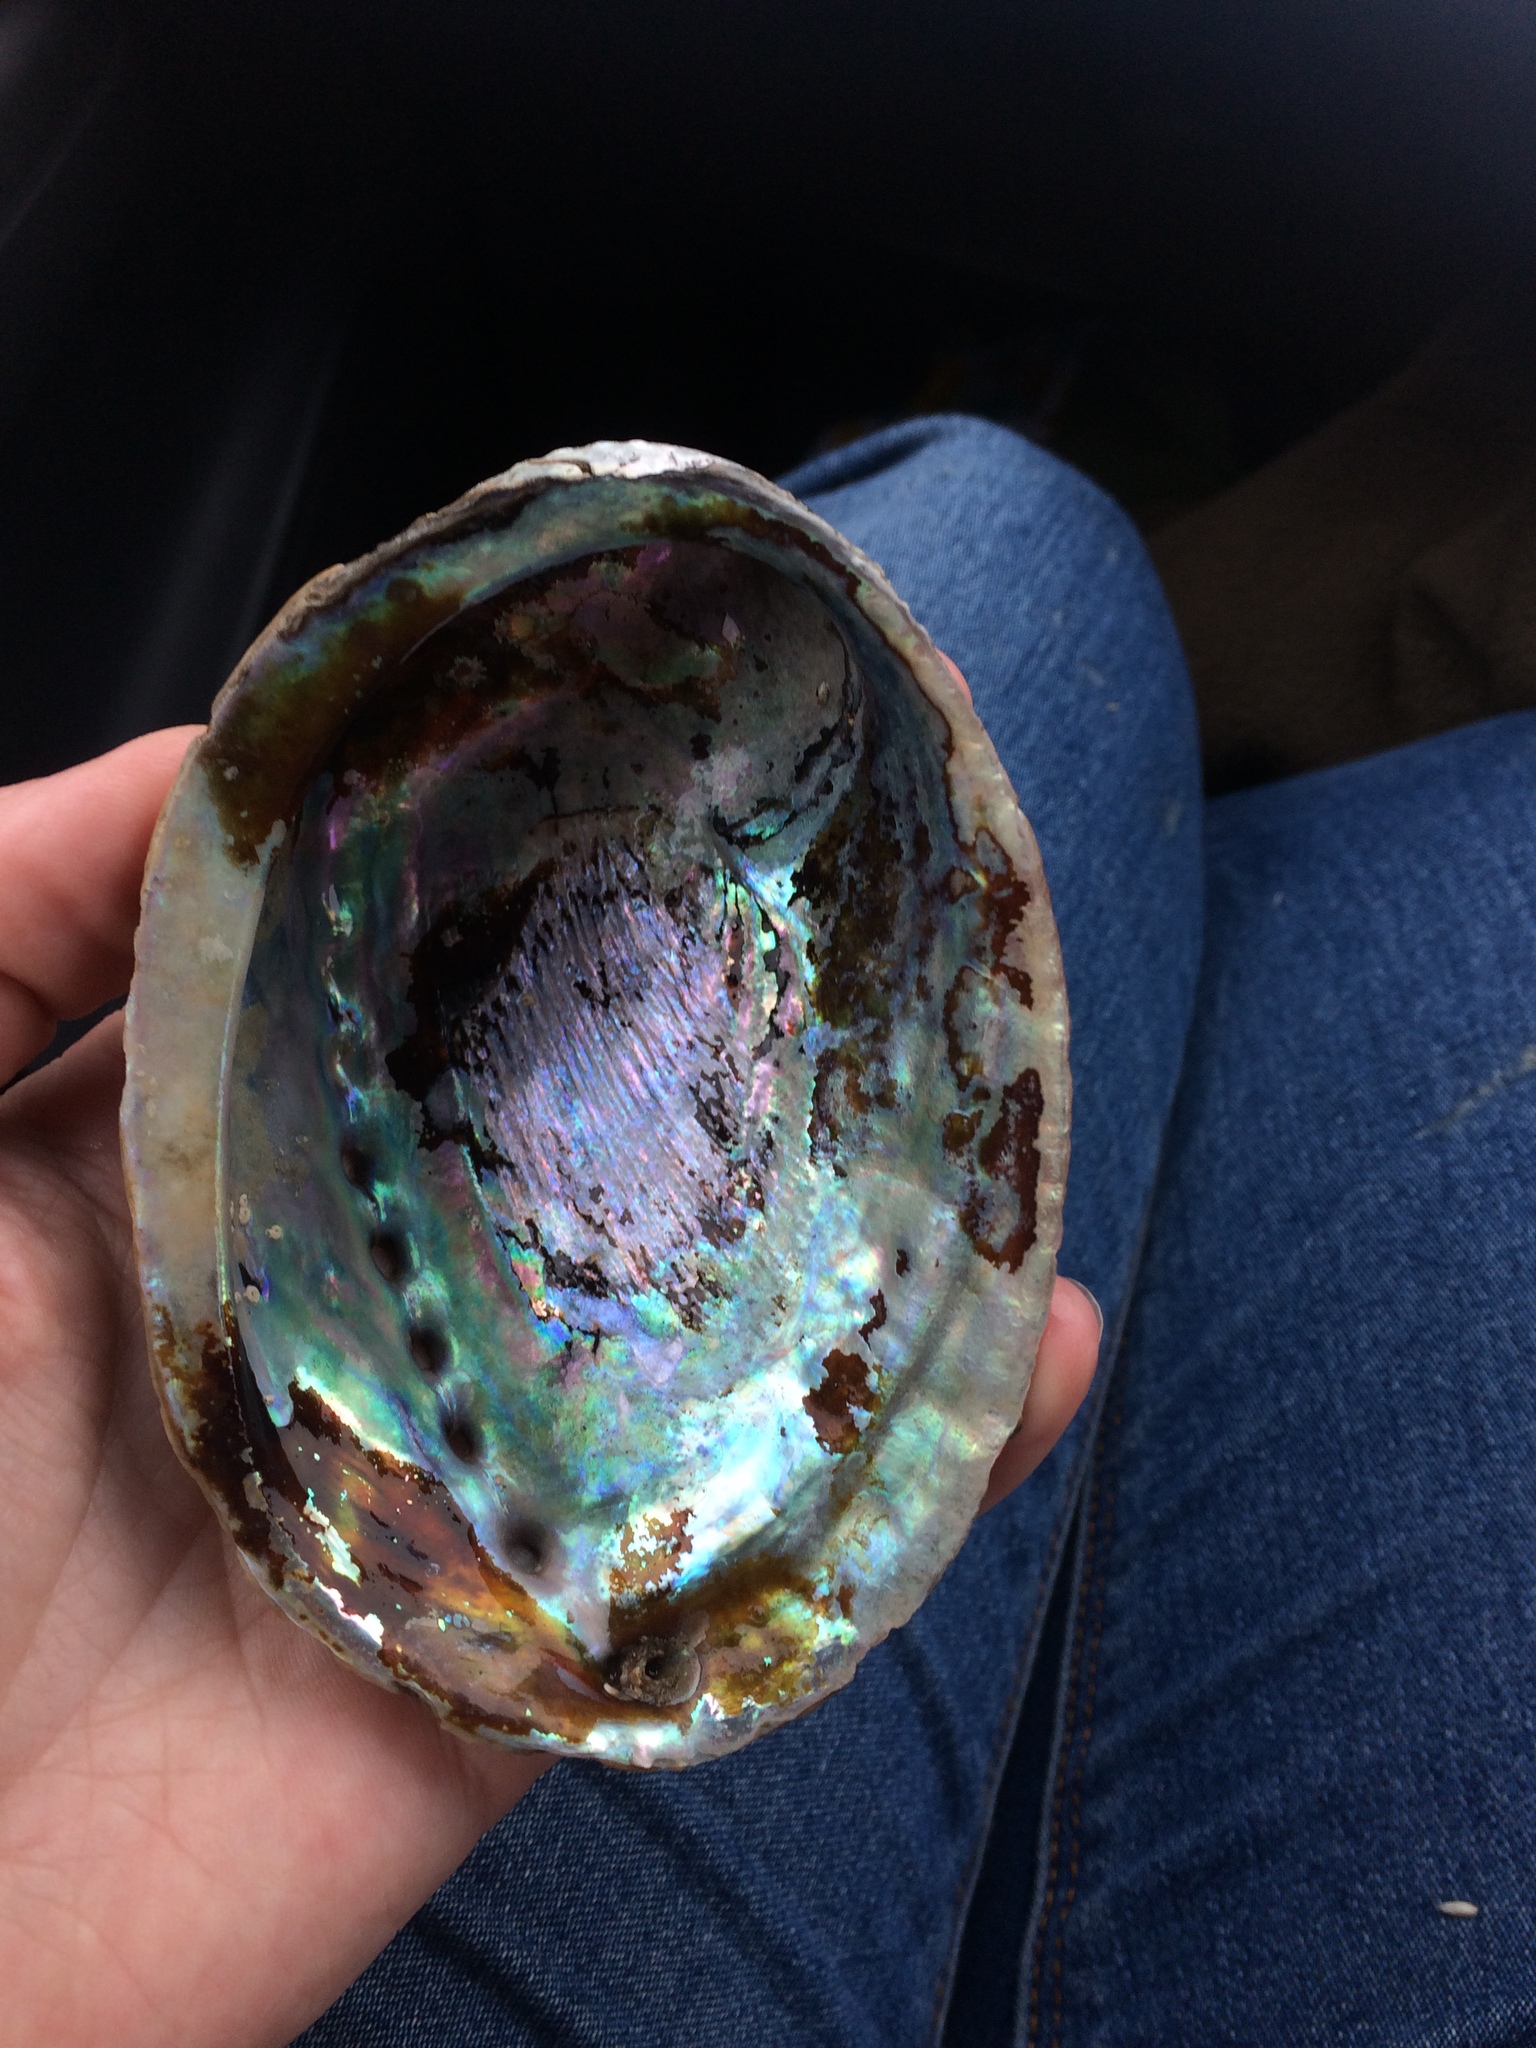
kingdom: Animalia
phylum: Mollusca
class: Gastropoda
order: Lepetellida
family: Haliotidae
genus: Haliotis
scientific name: Haliotis iris
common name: Abalone
